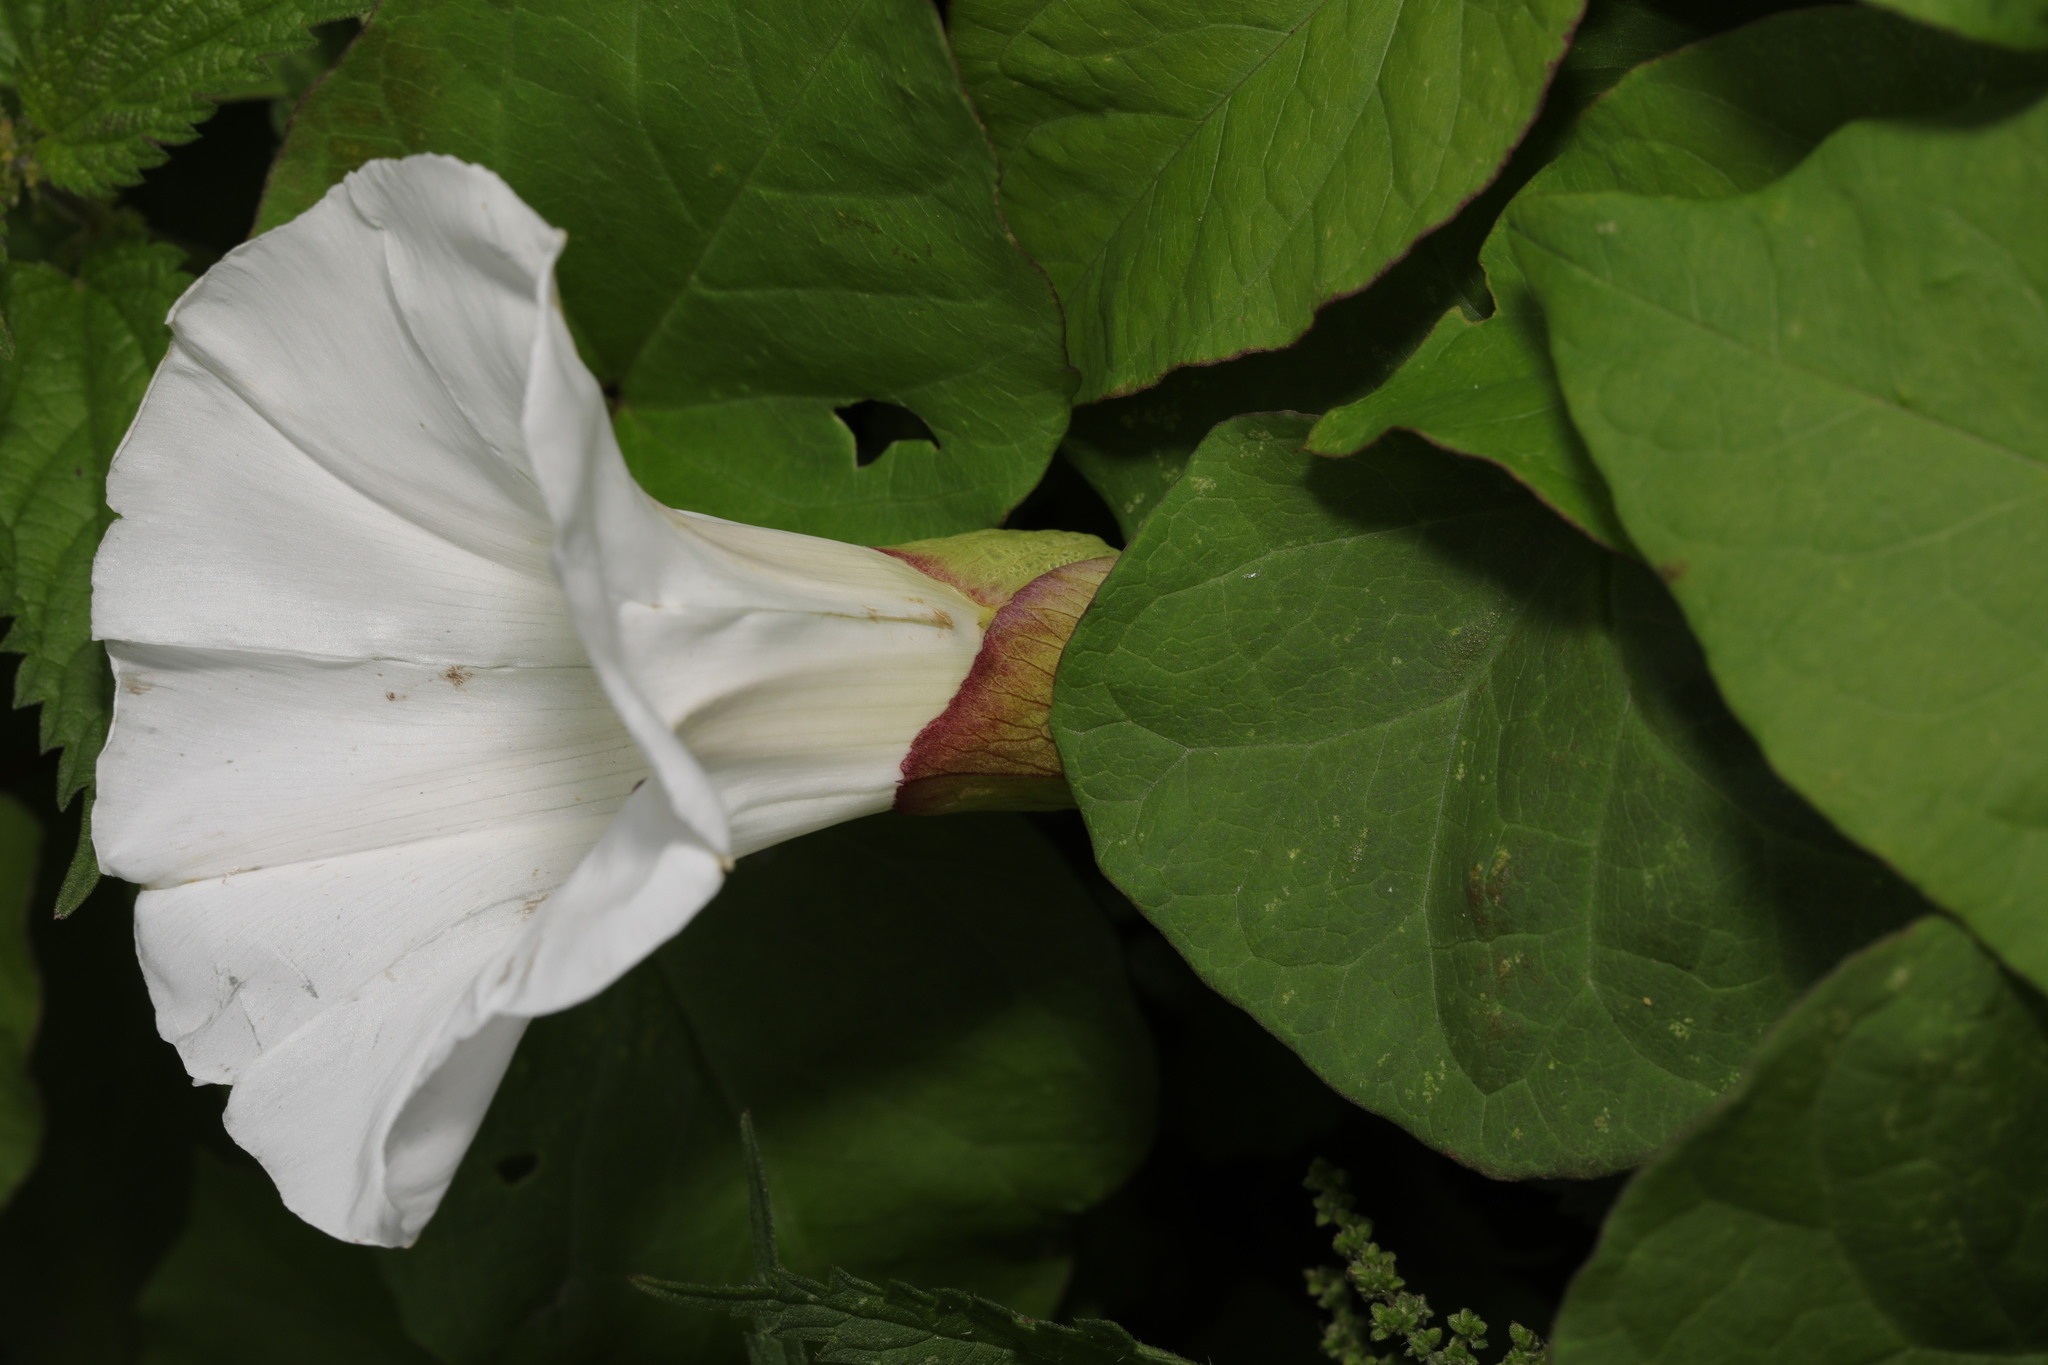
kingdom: Plantae
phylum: Tracheophyta
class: Magnoliopsida
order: Solanales
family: Convolvulaceae
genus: Calystegia
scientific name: Calystegia silvatica
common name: Large bindweed
